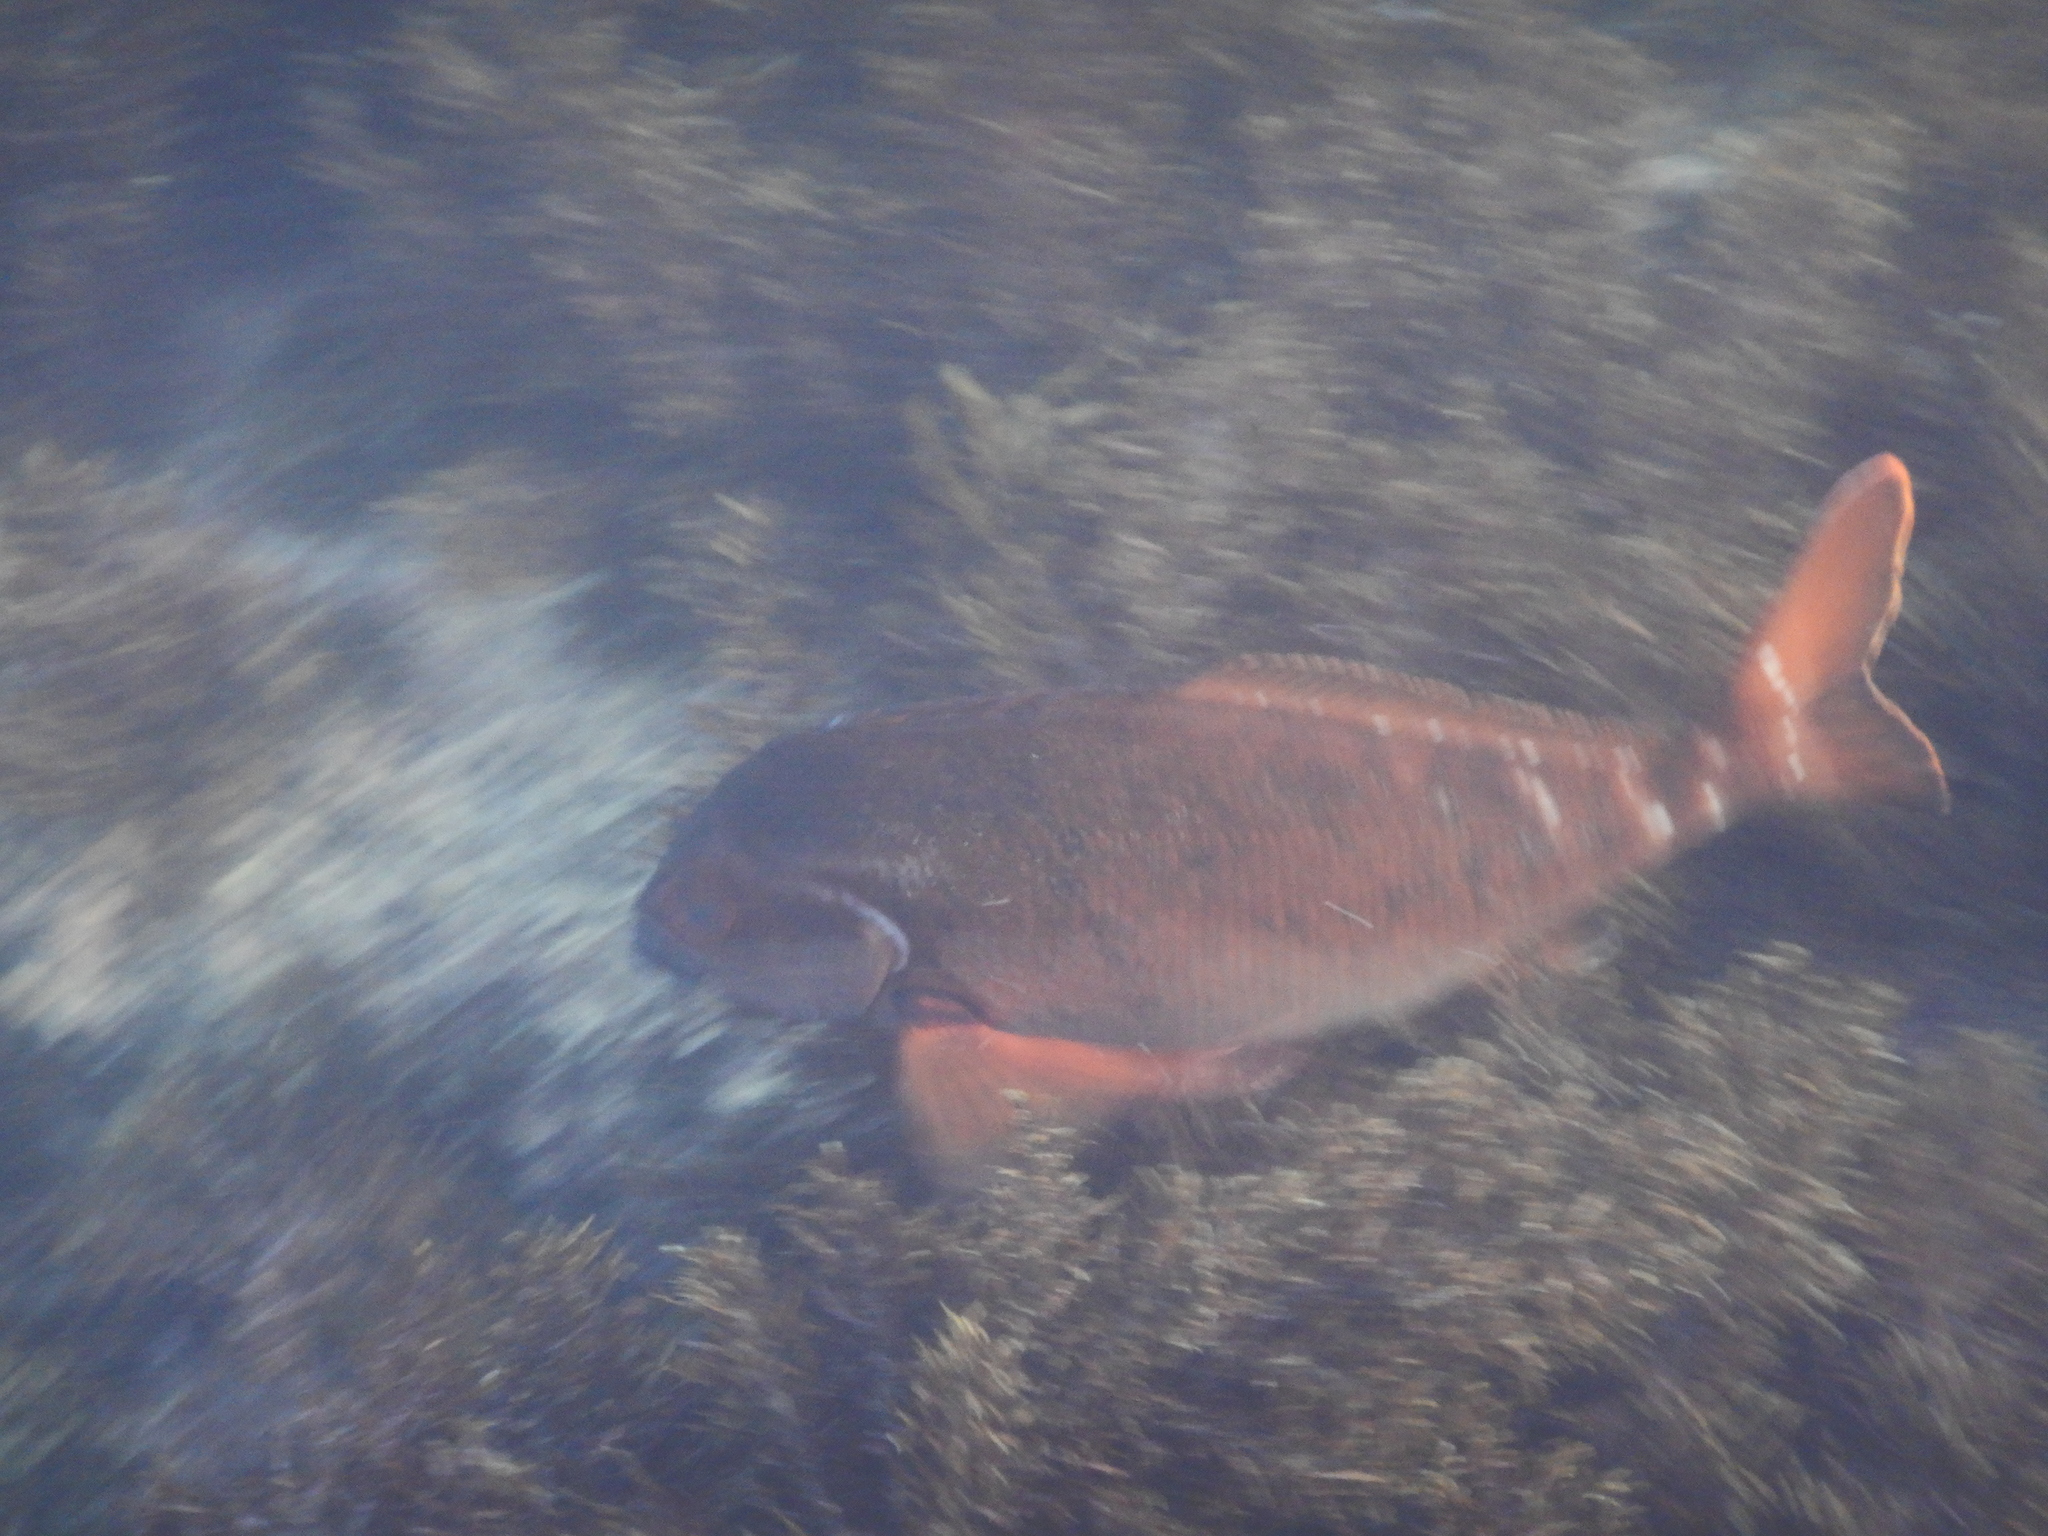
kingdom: Animalia
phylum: Chordata
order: Perciformes
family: Latridae
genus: Morwong
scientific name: Morwong fuscus
